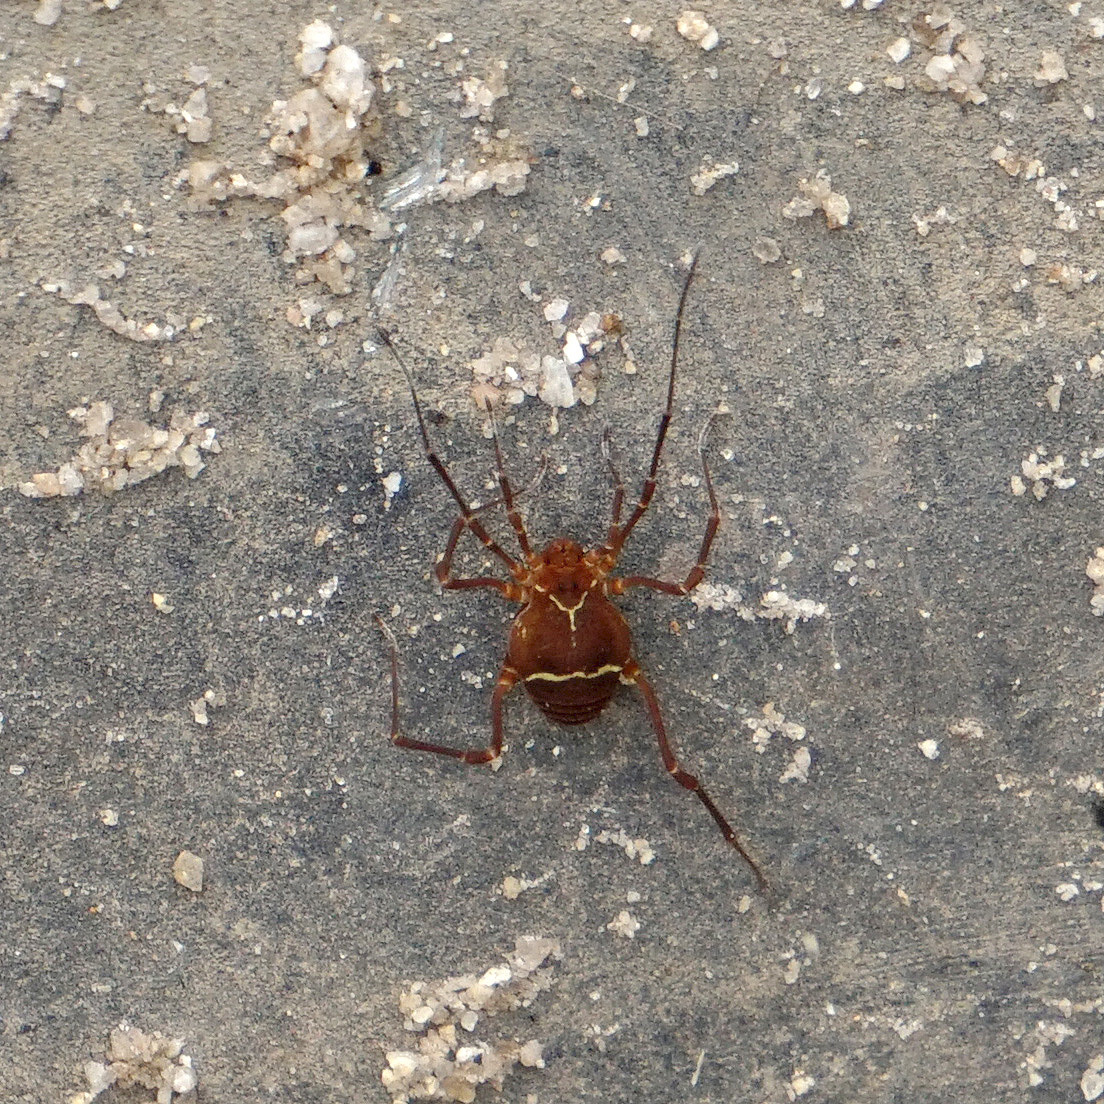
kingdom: Animalia
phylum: Arthropoda
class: Arachnida
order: Opiliones
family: Cosmetidae
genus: Libitioides
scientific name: Libitioides sayi
